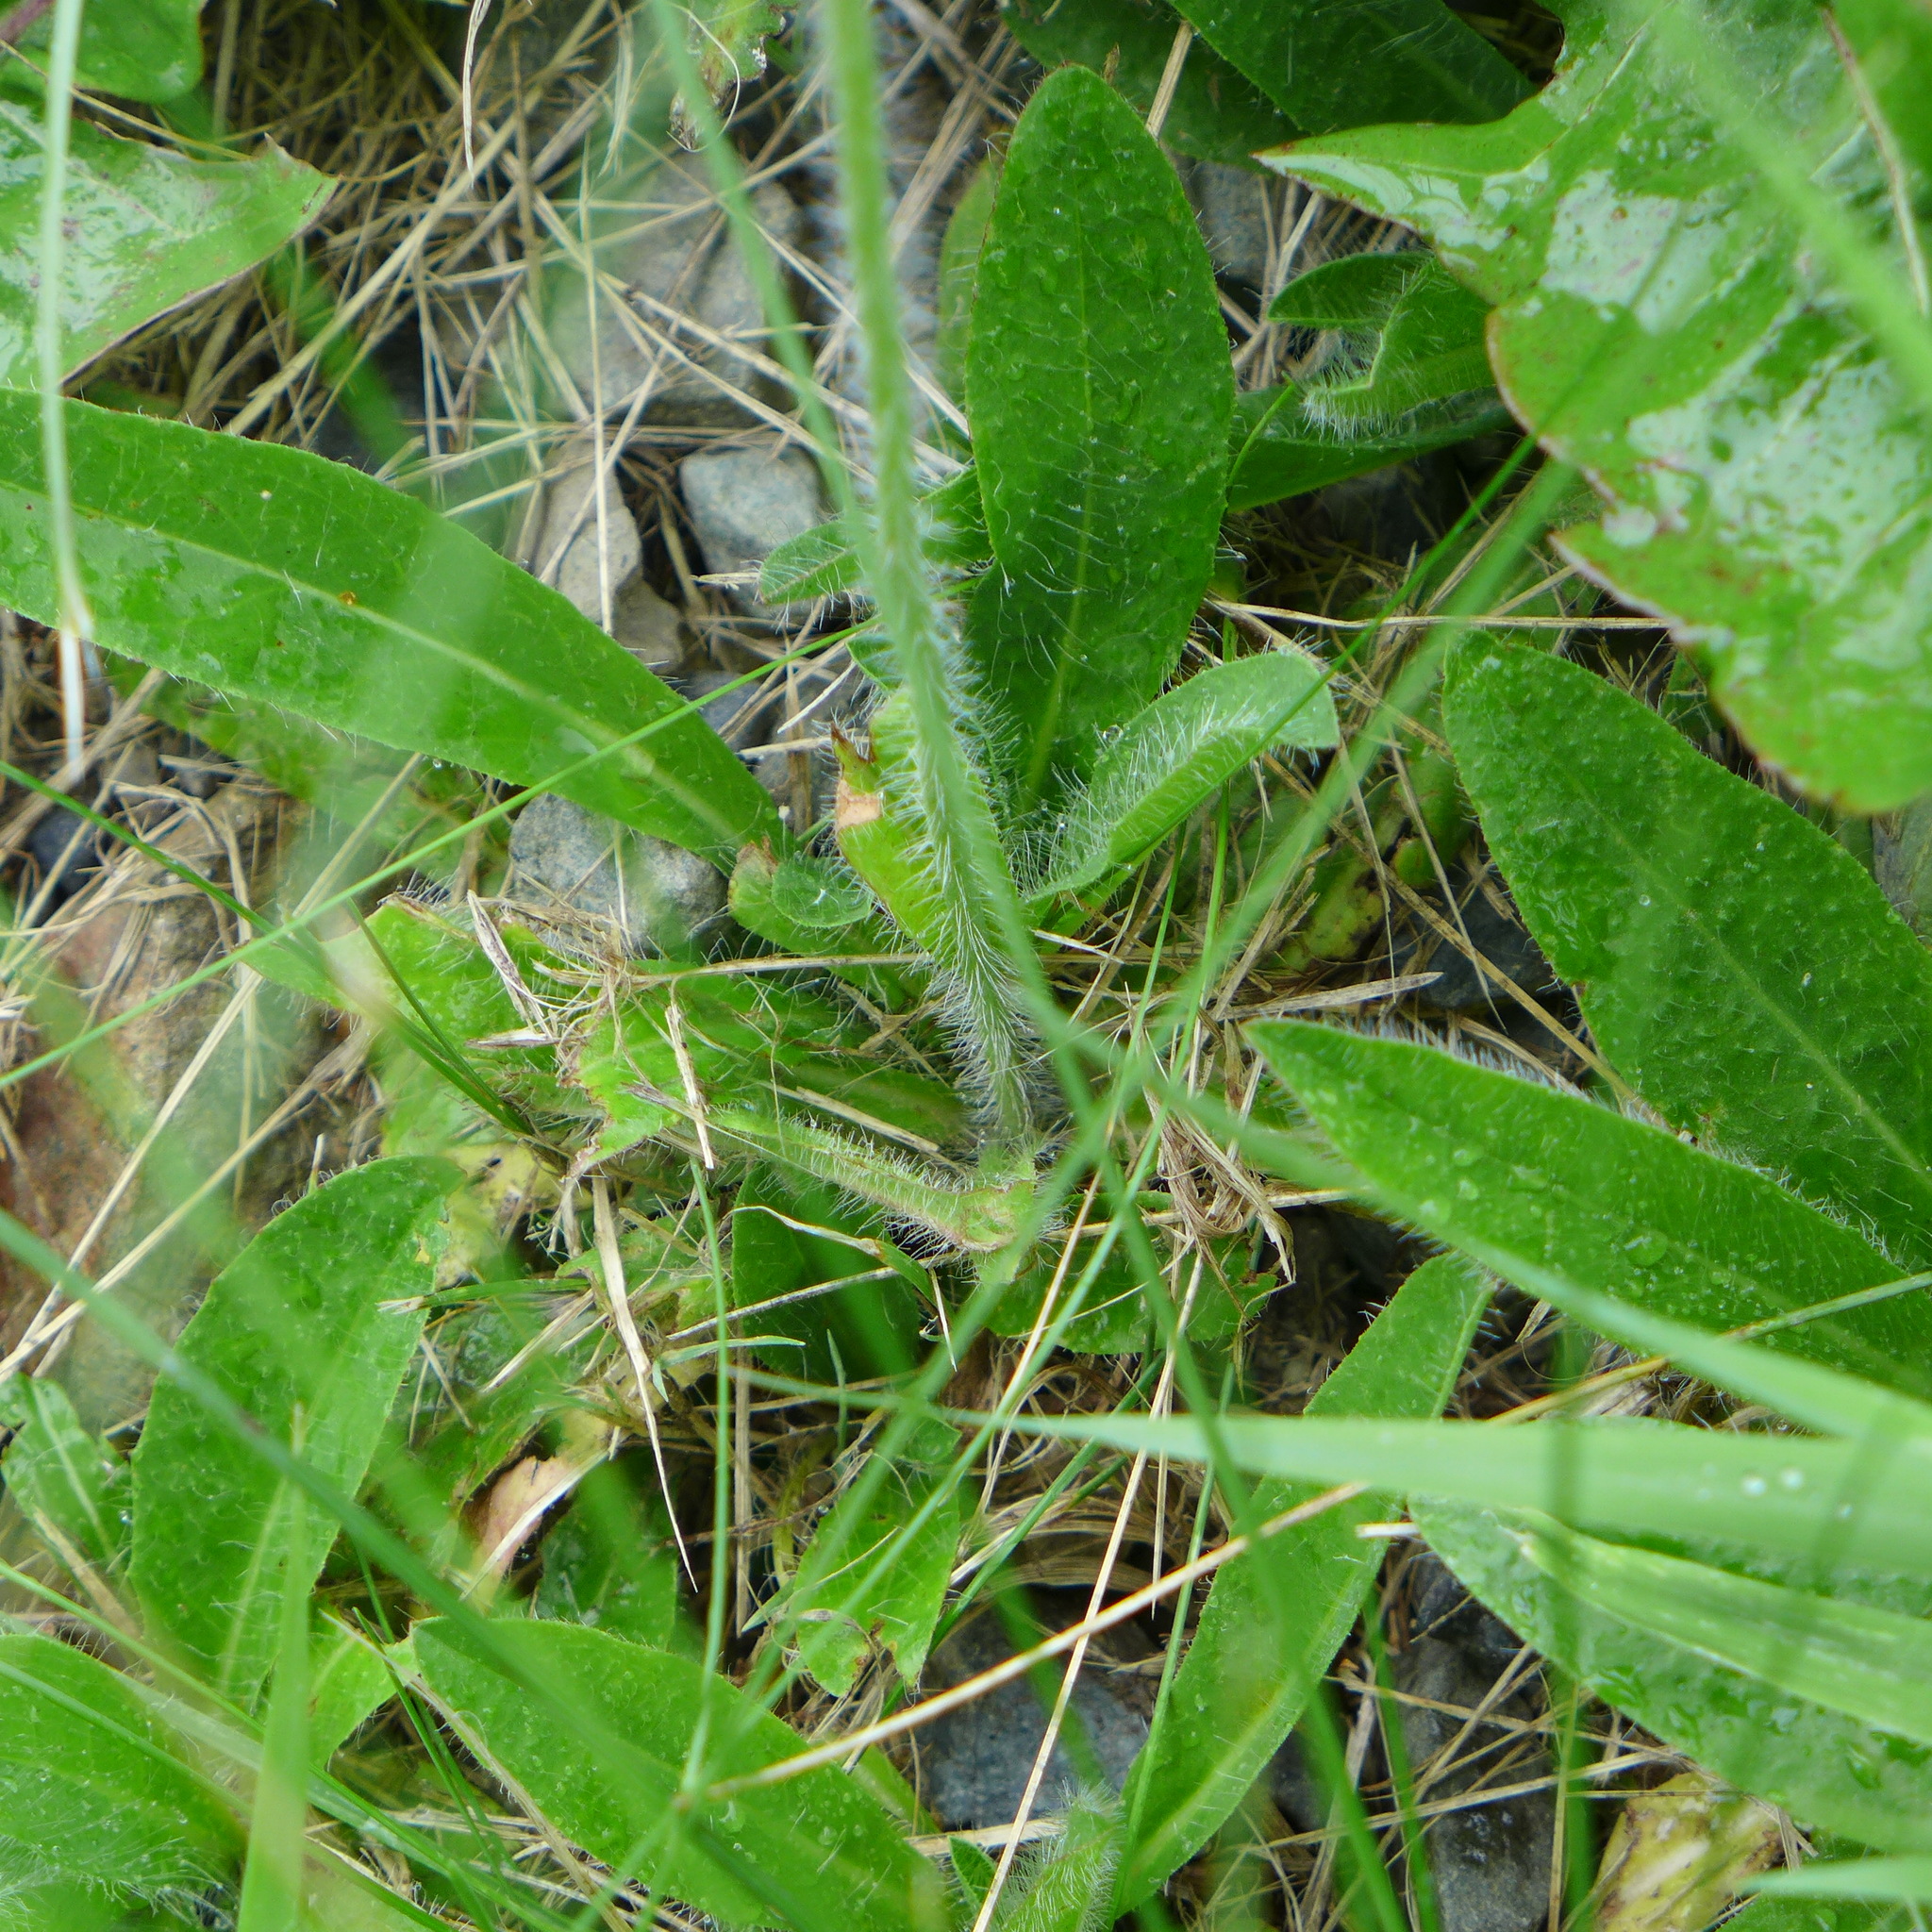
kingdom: Plantae
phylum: Tracheophyta
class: Magnoliopsida
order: Asterales
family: Asteraceae
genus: Pilosella
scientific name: Pilosella aurantiaca
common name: Fox-and-cubs
